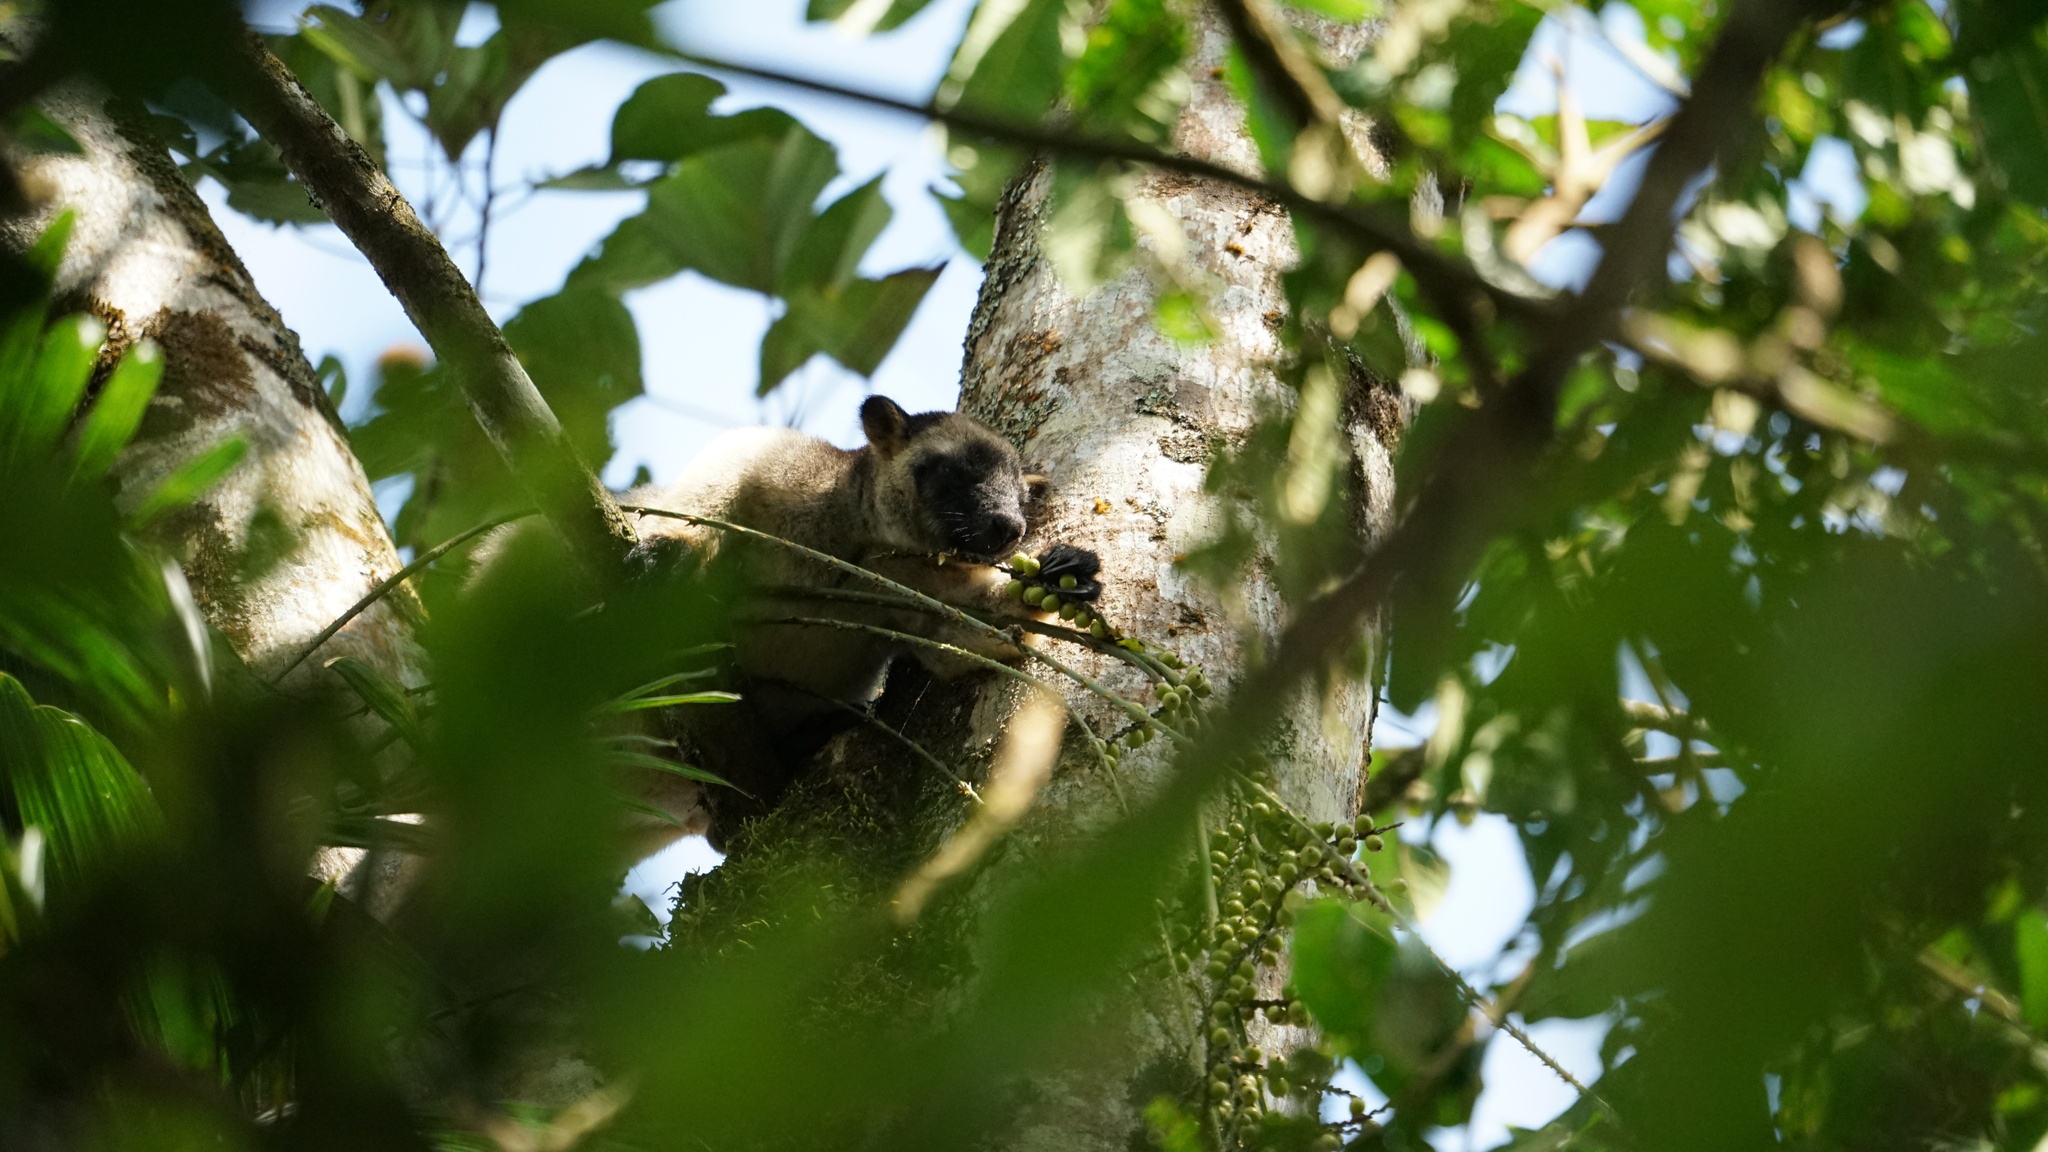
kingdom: Animalia
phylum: Chordata
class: Mammalia
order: Diprotodontia
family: Macropodidae
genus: Dendrolagus
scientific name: Dendrolagus lumholtzi
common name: Lumholtz's tree kangaroo
